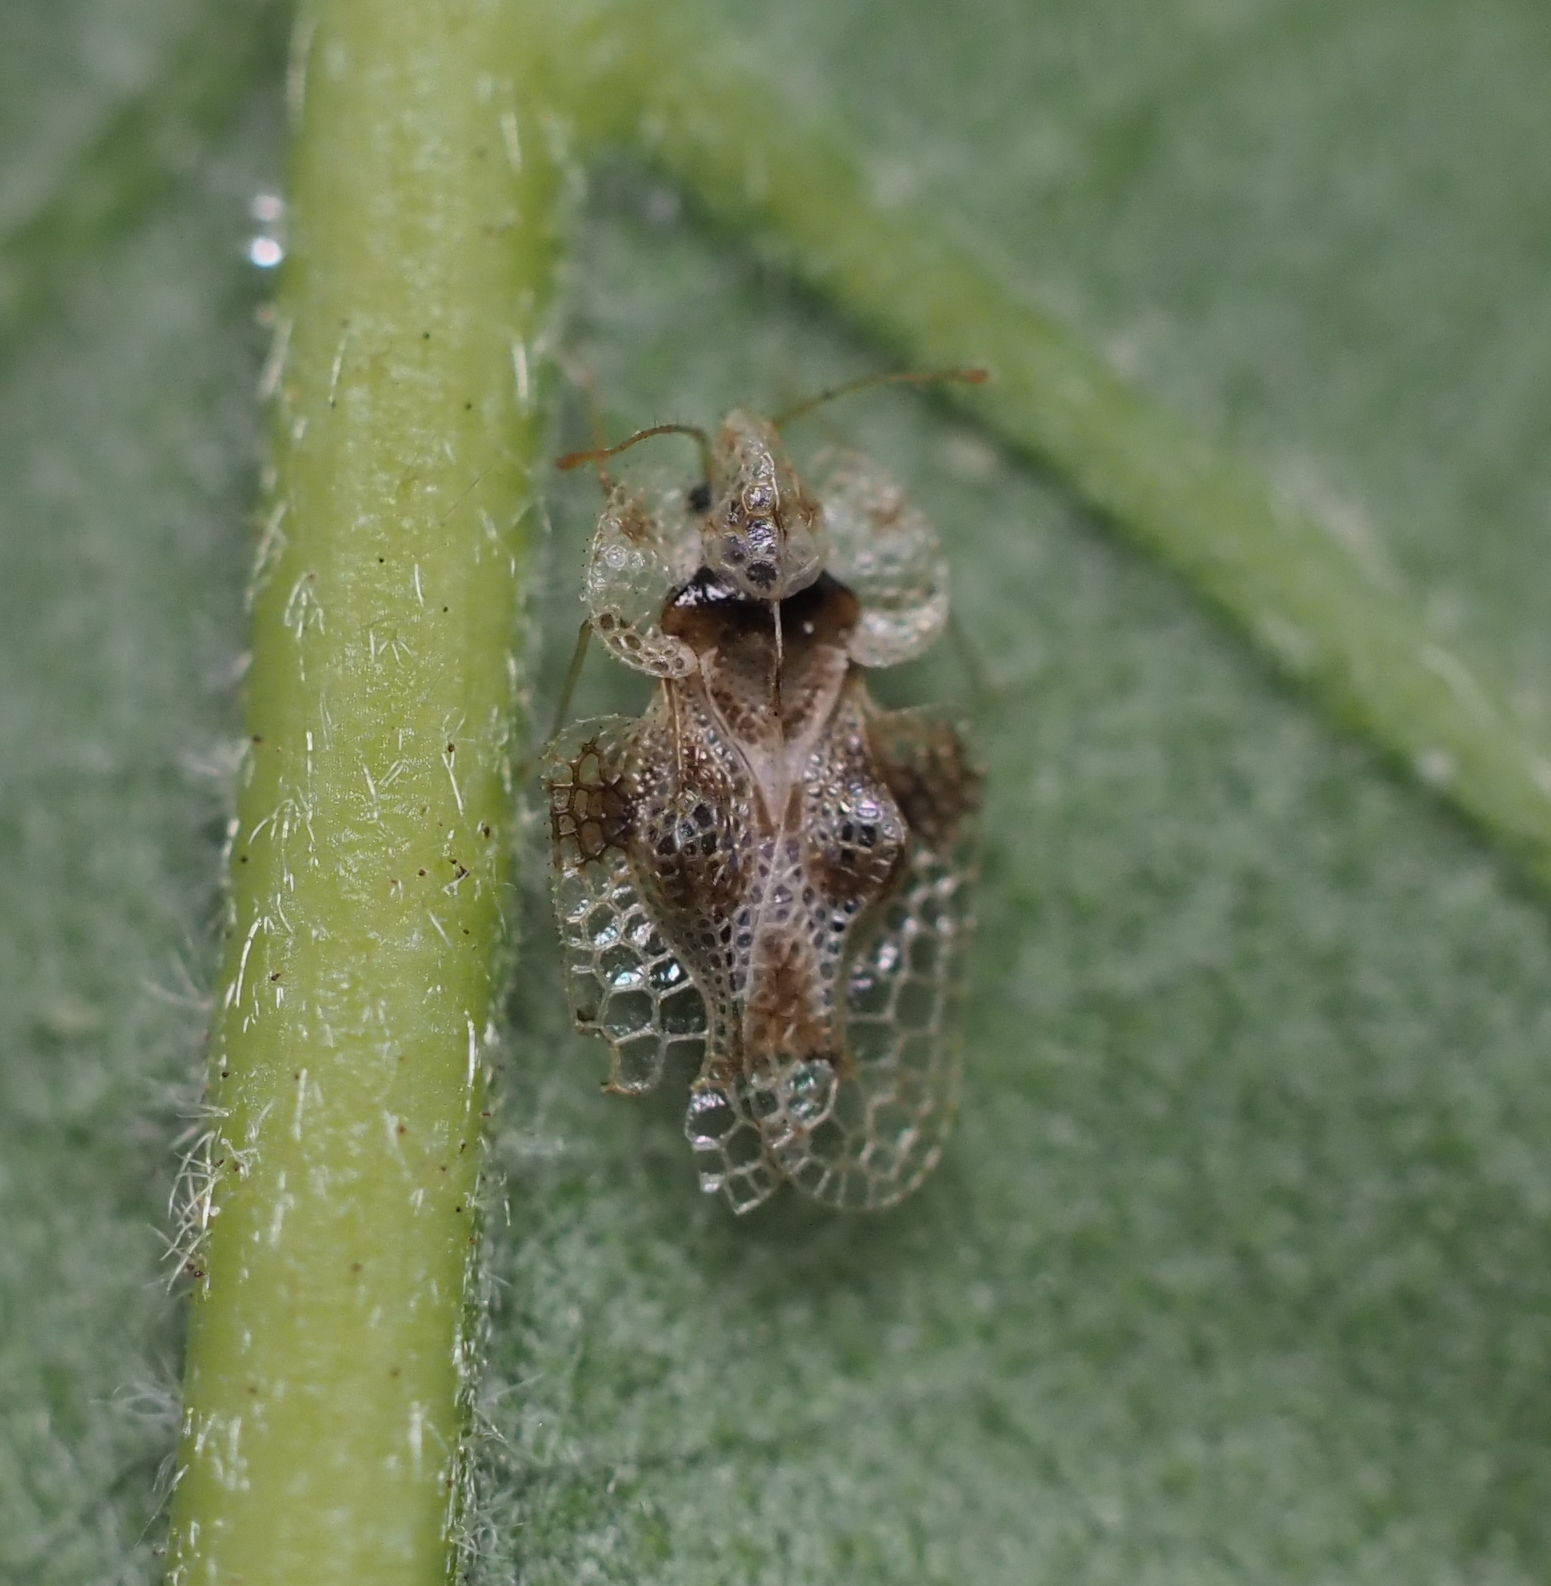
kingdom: Animalia
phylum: Arthropoda
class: Insecta
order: Hemiptera
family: Tingidae
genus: Corythucha
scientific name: Corythucha arcuata
